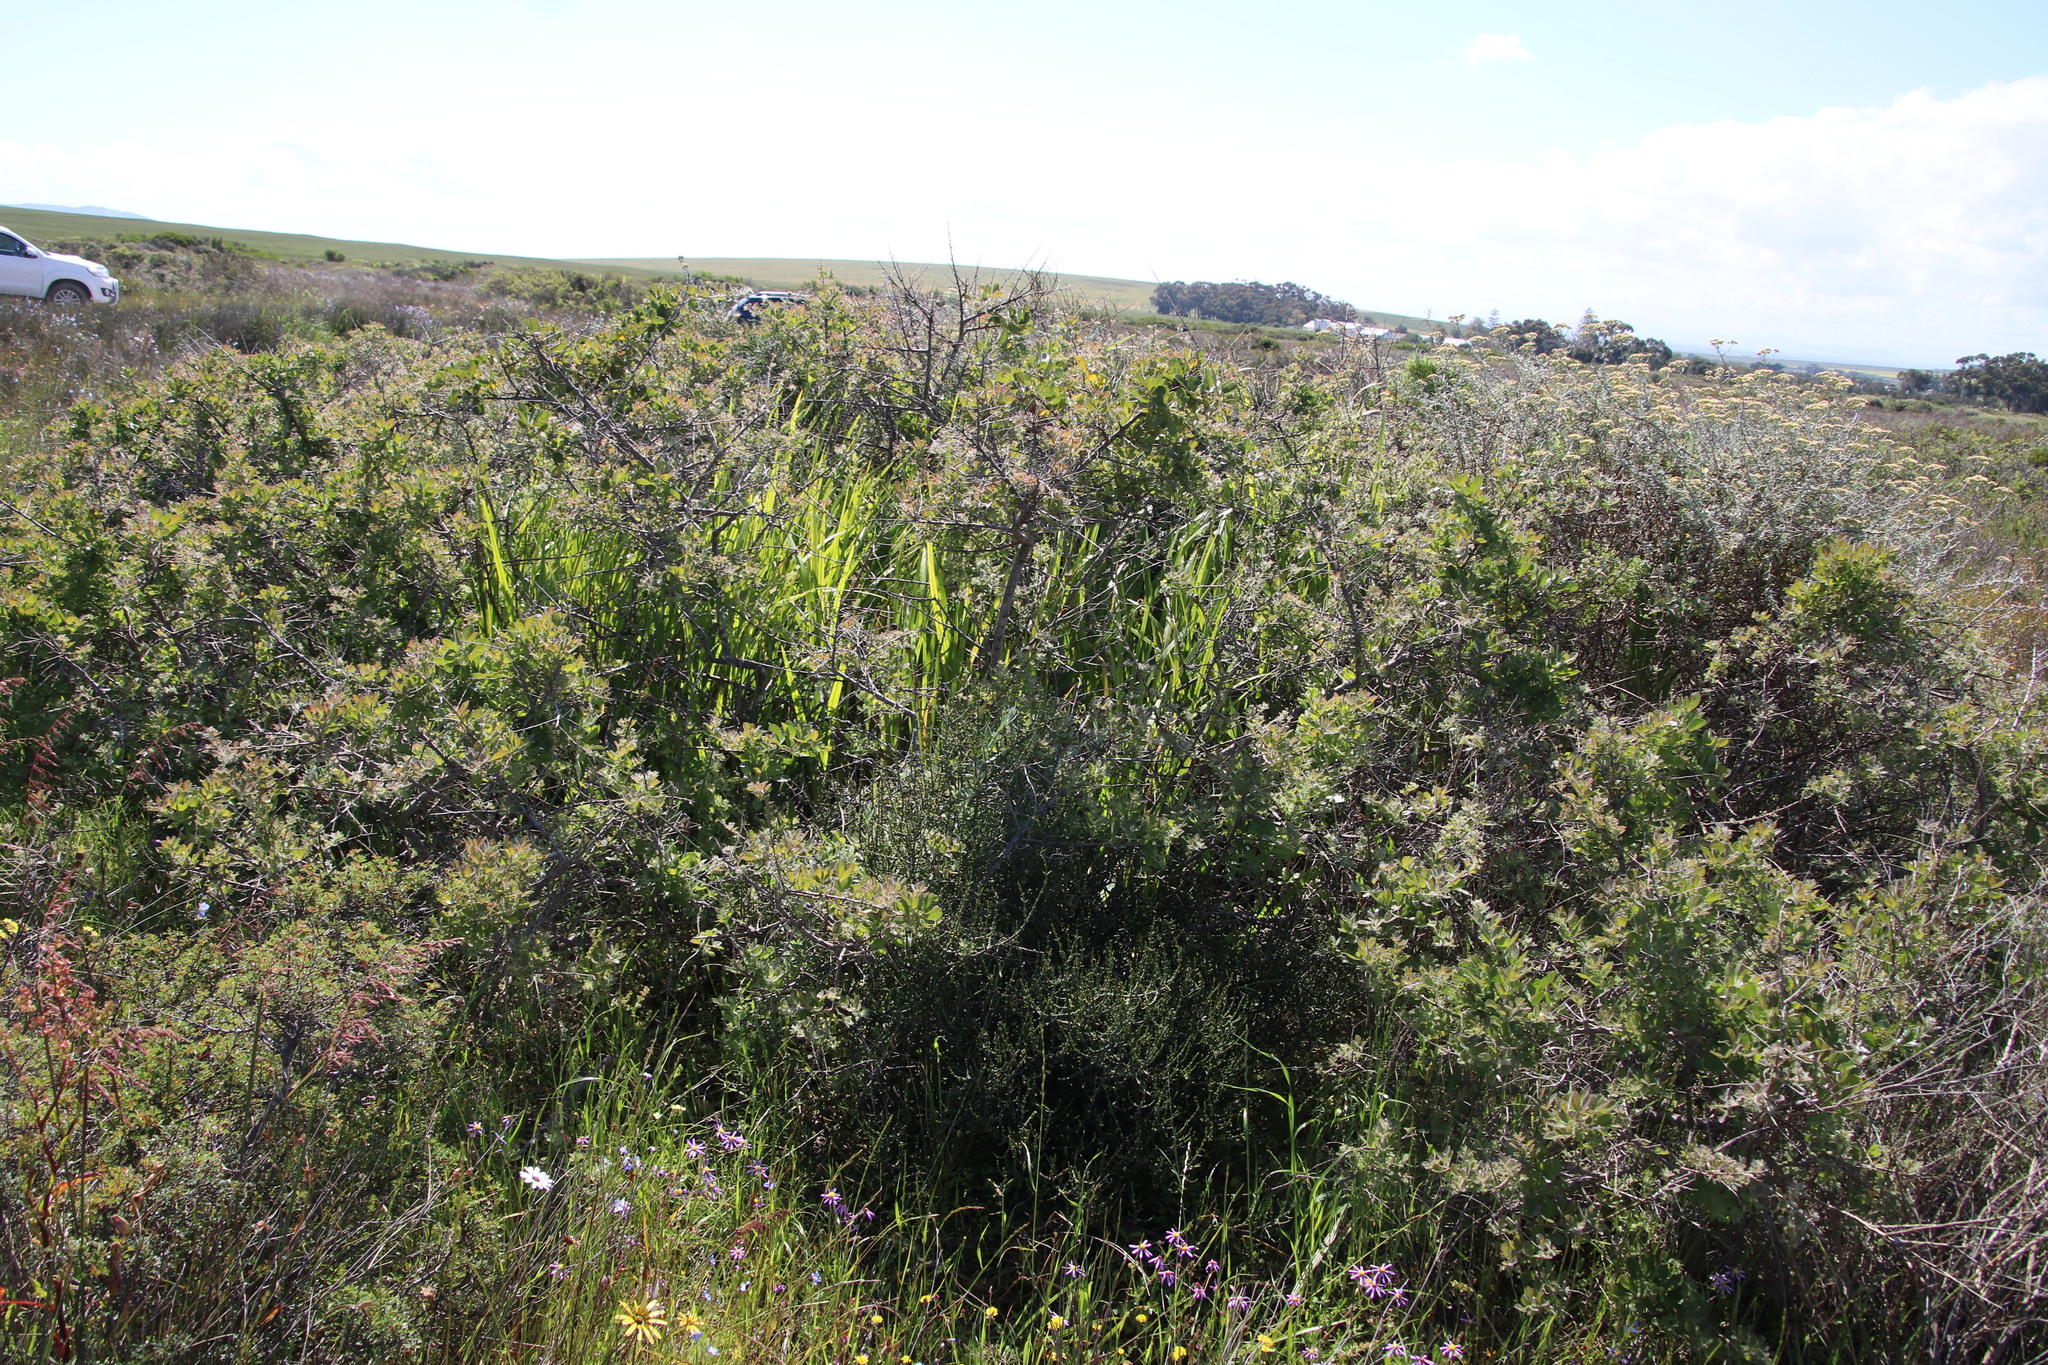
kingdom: Plantae
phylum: Tracheophyta
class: Magnoliopsida
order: Sapindales
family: Anacardiaceae
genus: Searsia
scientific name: Searsia laevigata
